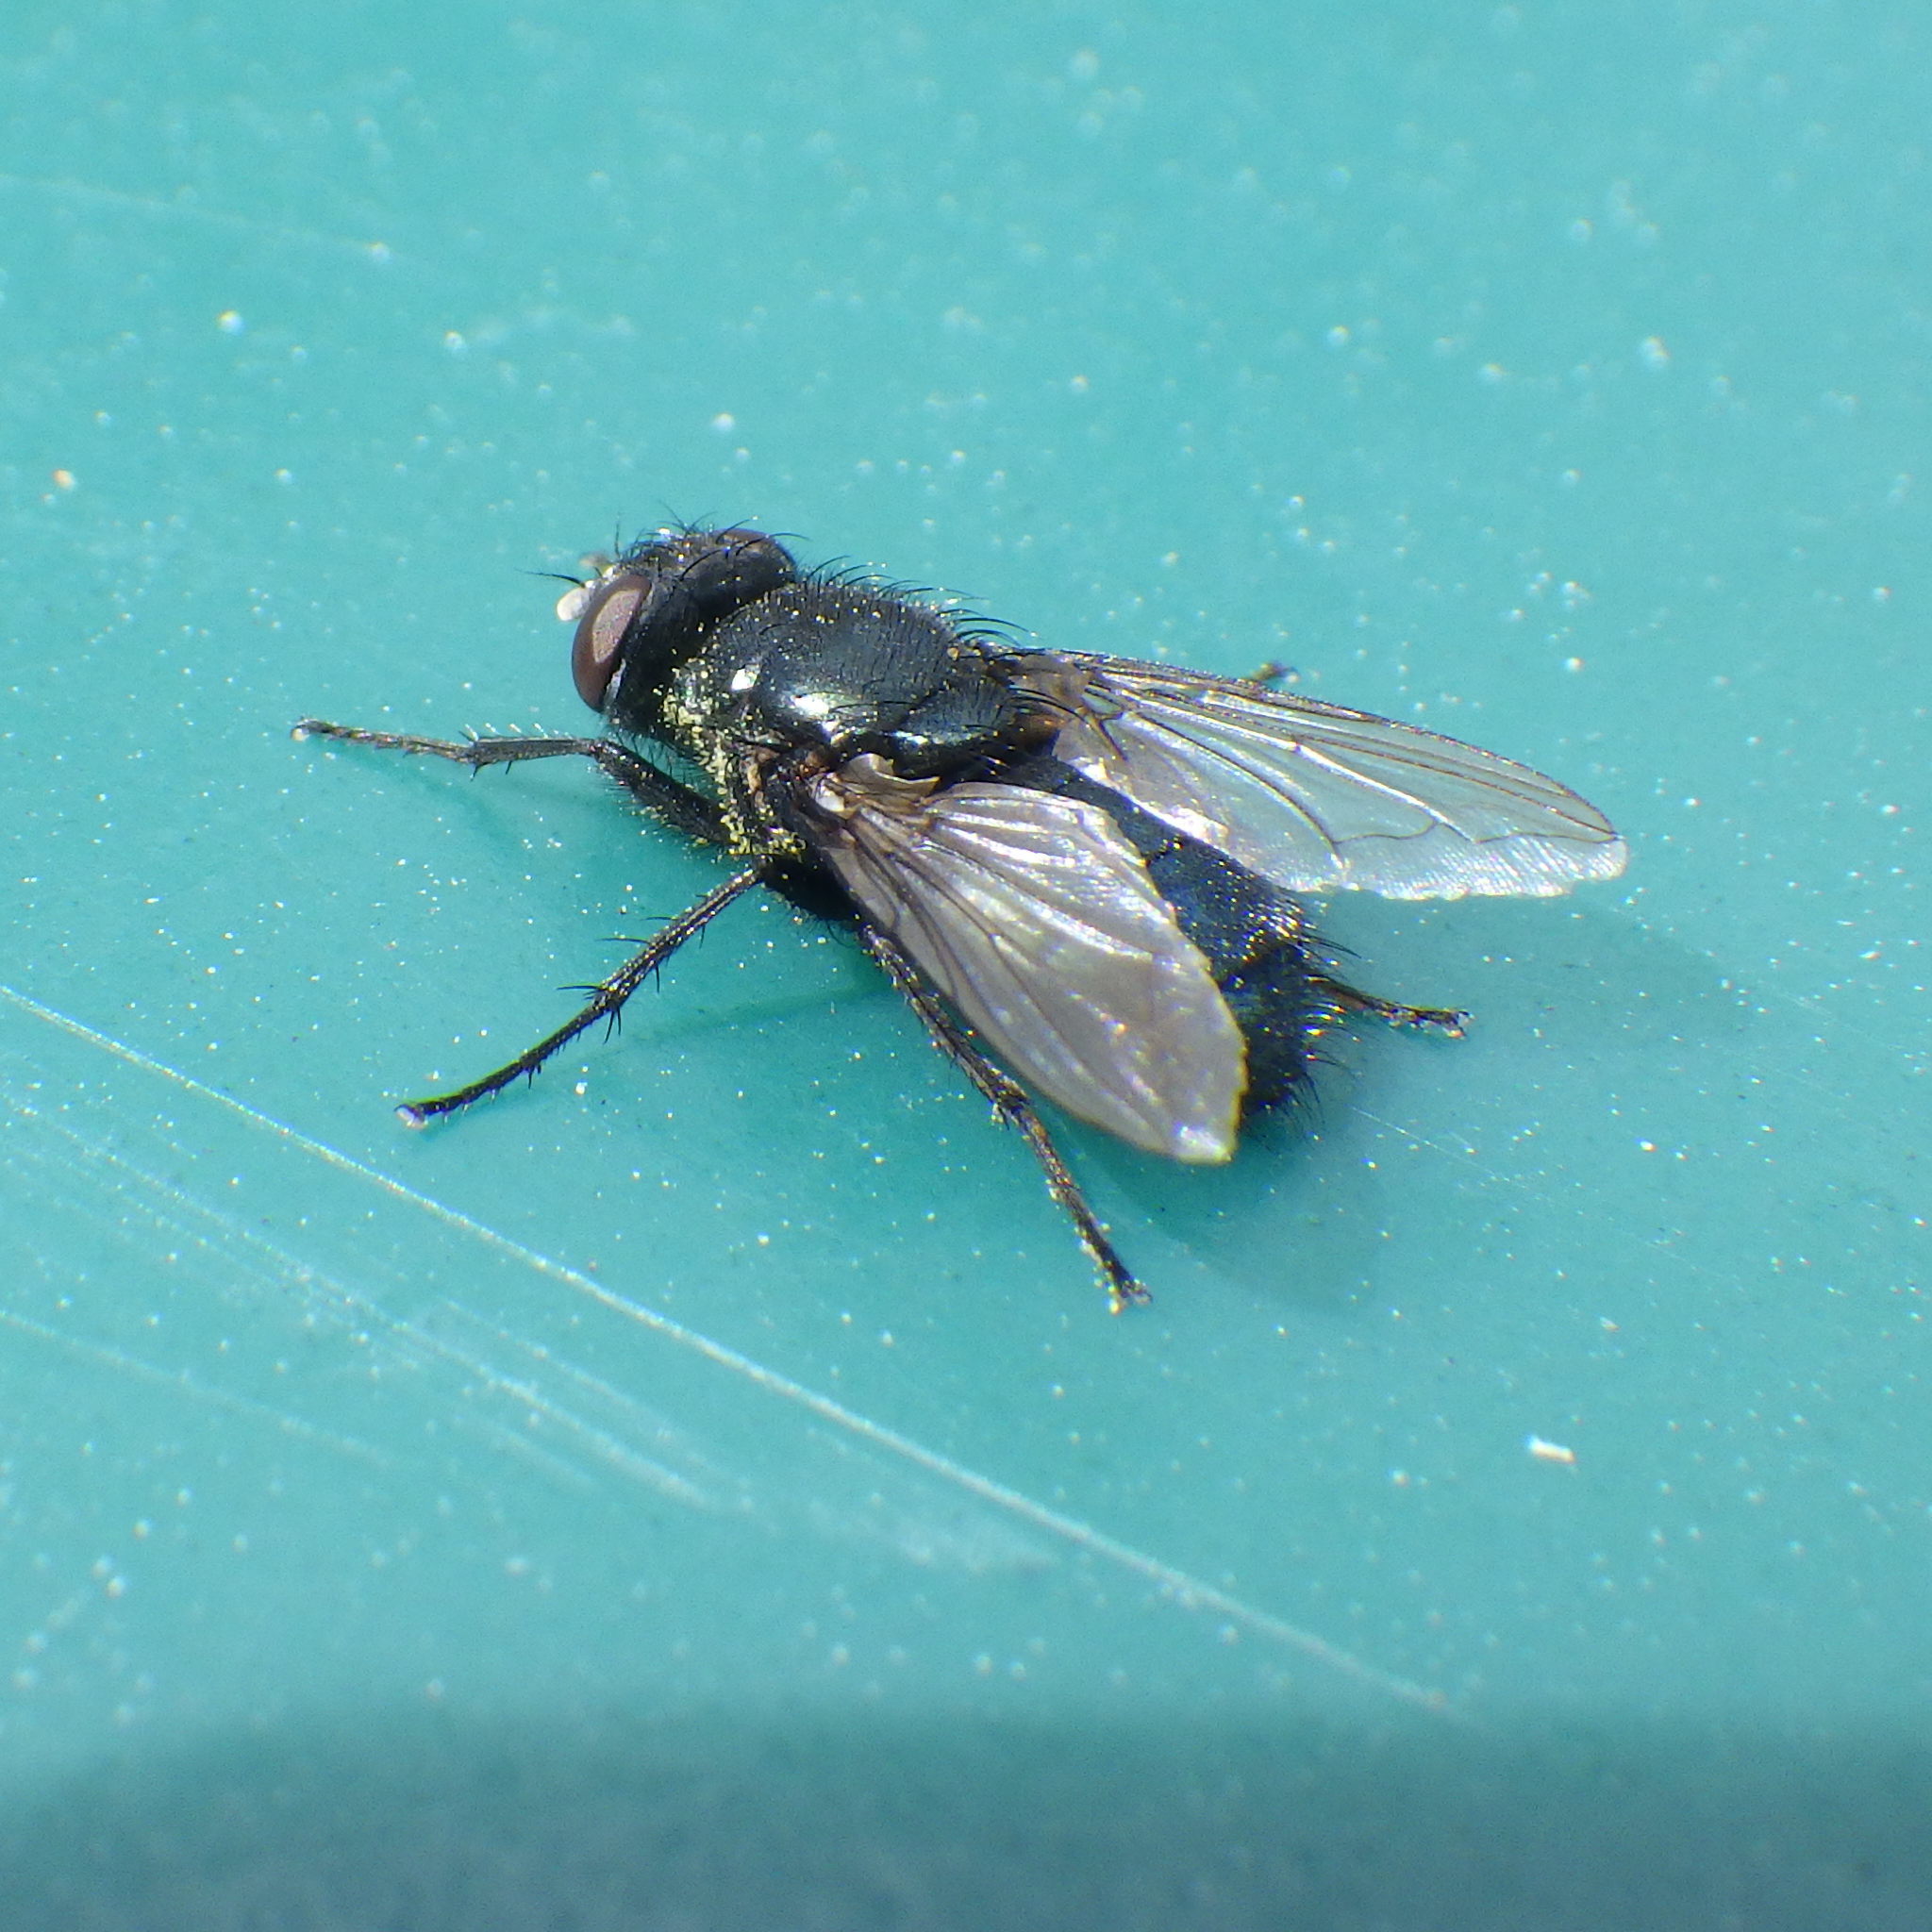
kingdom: Animalia
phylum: Arthropoda
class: Insecta
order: Diptera
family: Calliphoridae
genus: Protophormia
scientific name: Protophormia terraenovae
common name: Blackbottle
